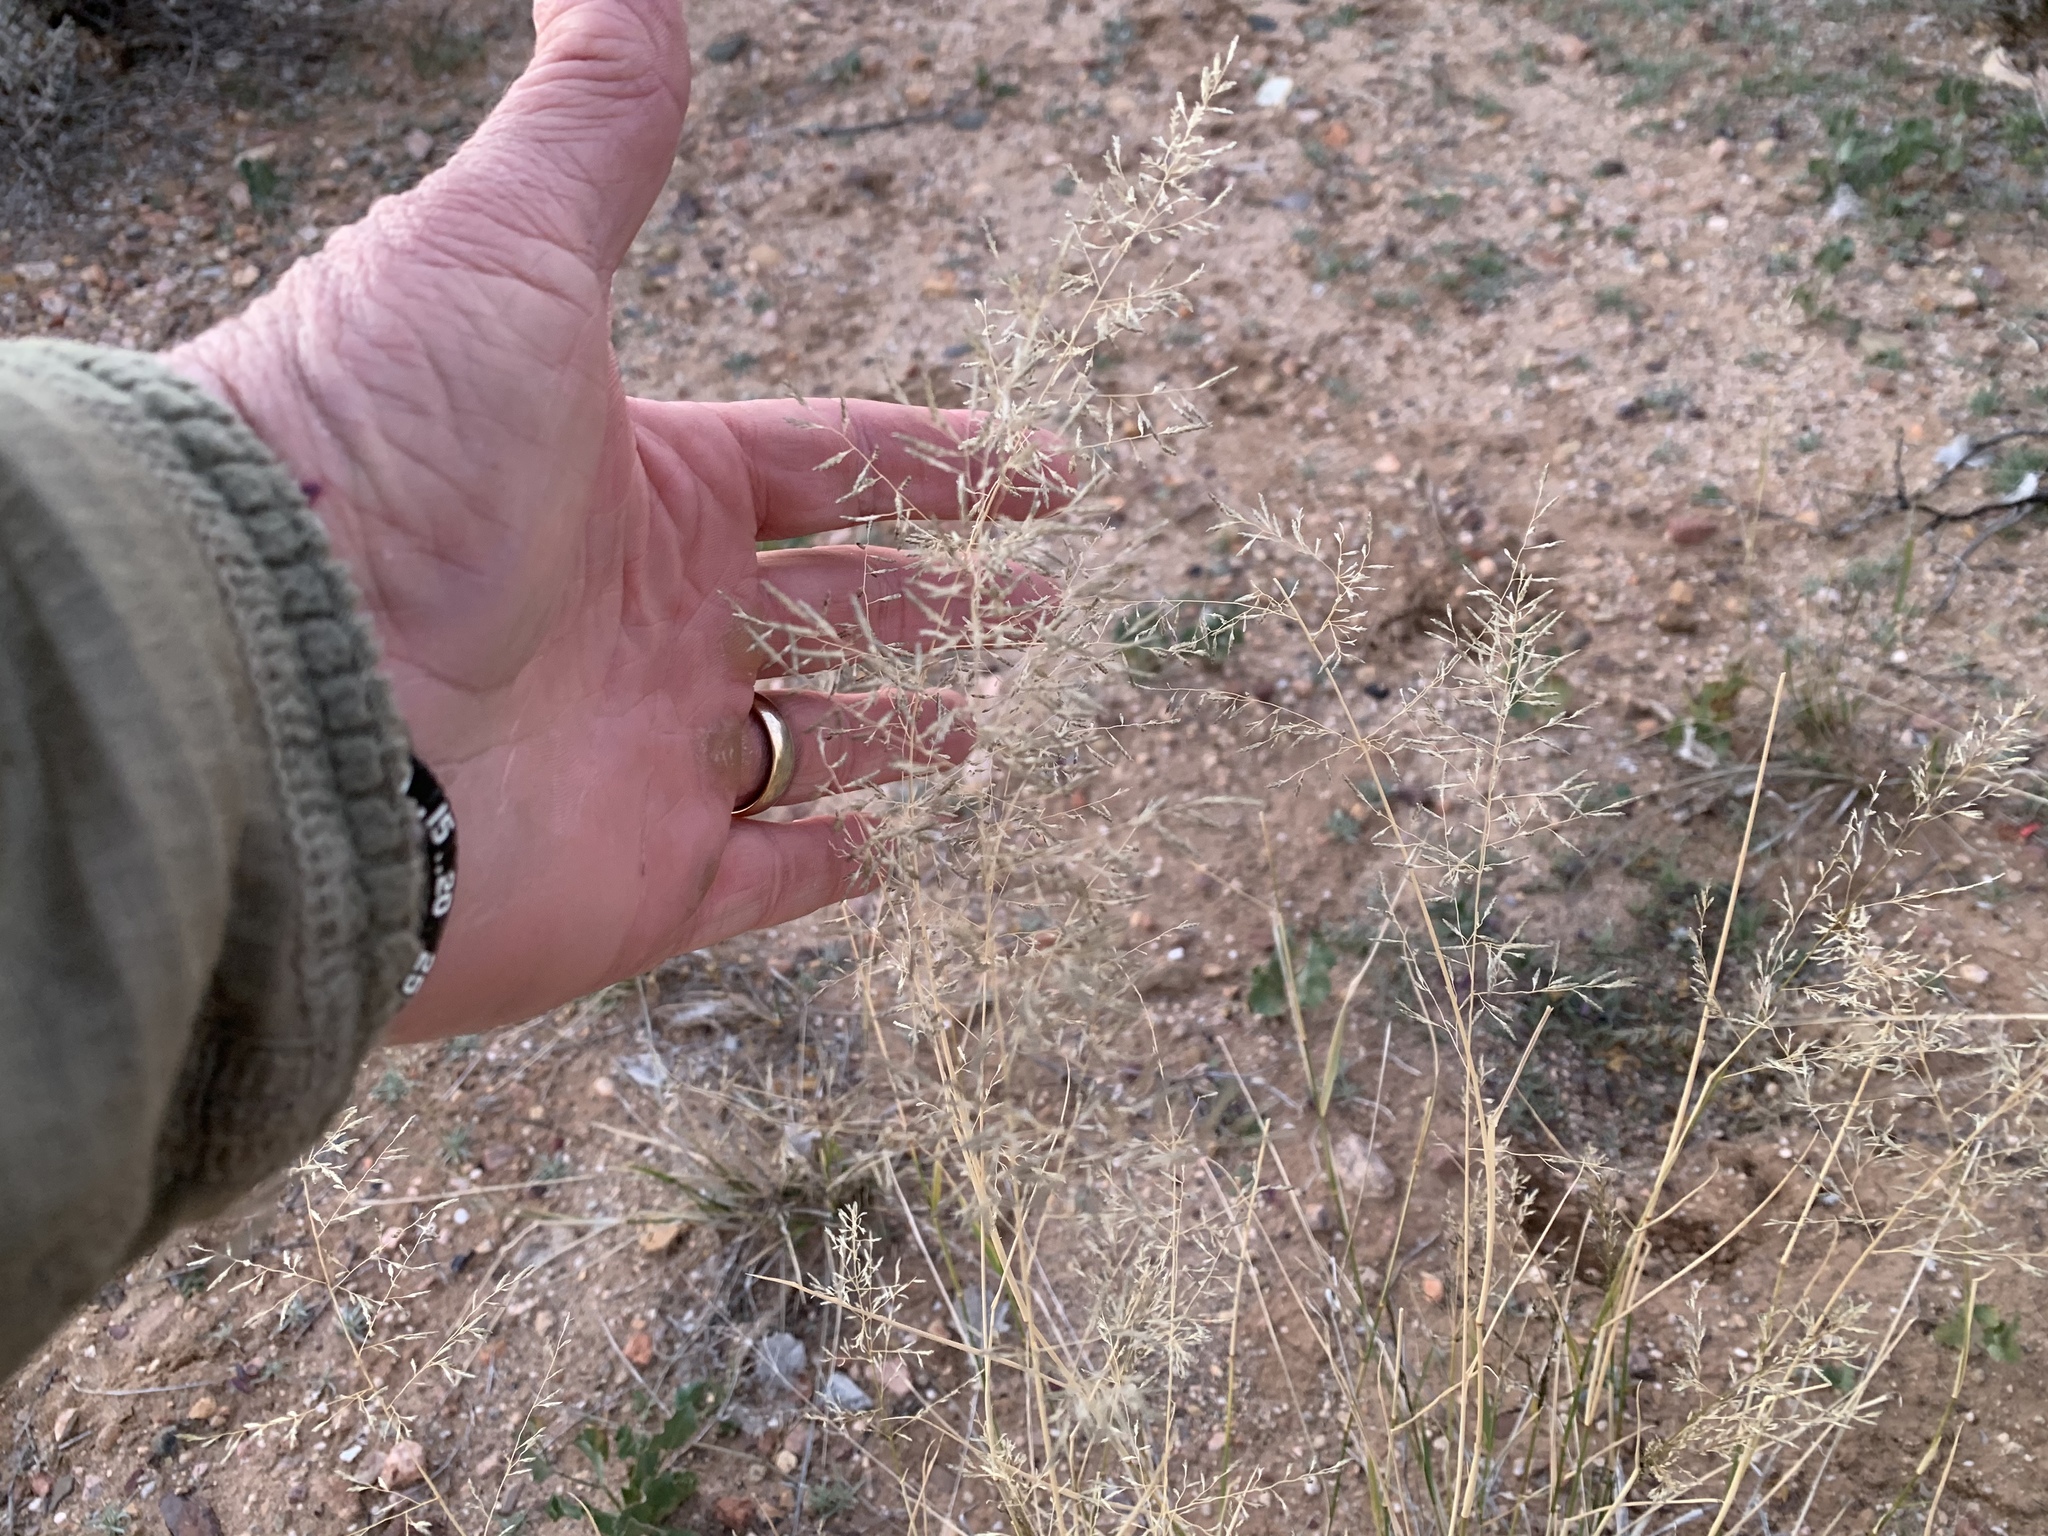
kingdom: Plantae
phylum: Tracheophyta
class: Liliopsida
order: Poales
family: Poaceae
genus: Eragrostis
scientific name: Eragrostis lehmanniana
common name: Lehmann lovegrass
